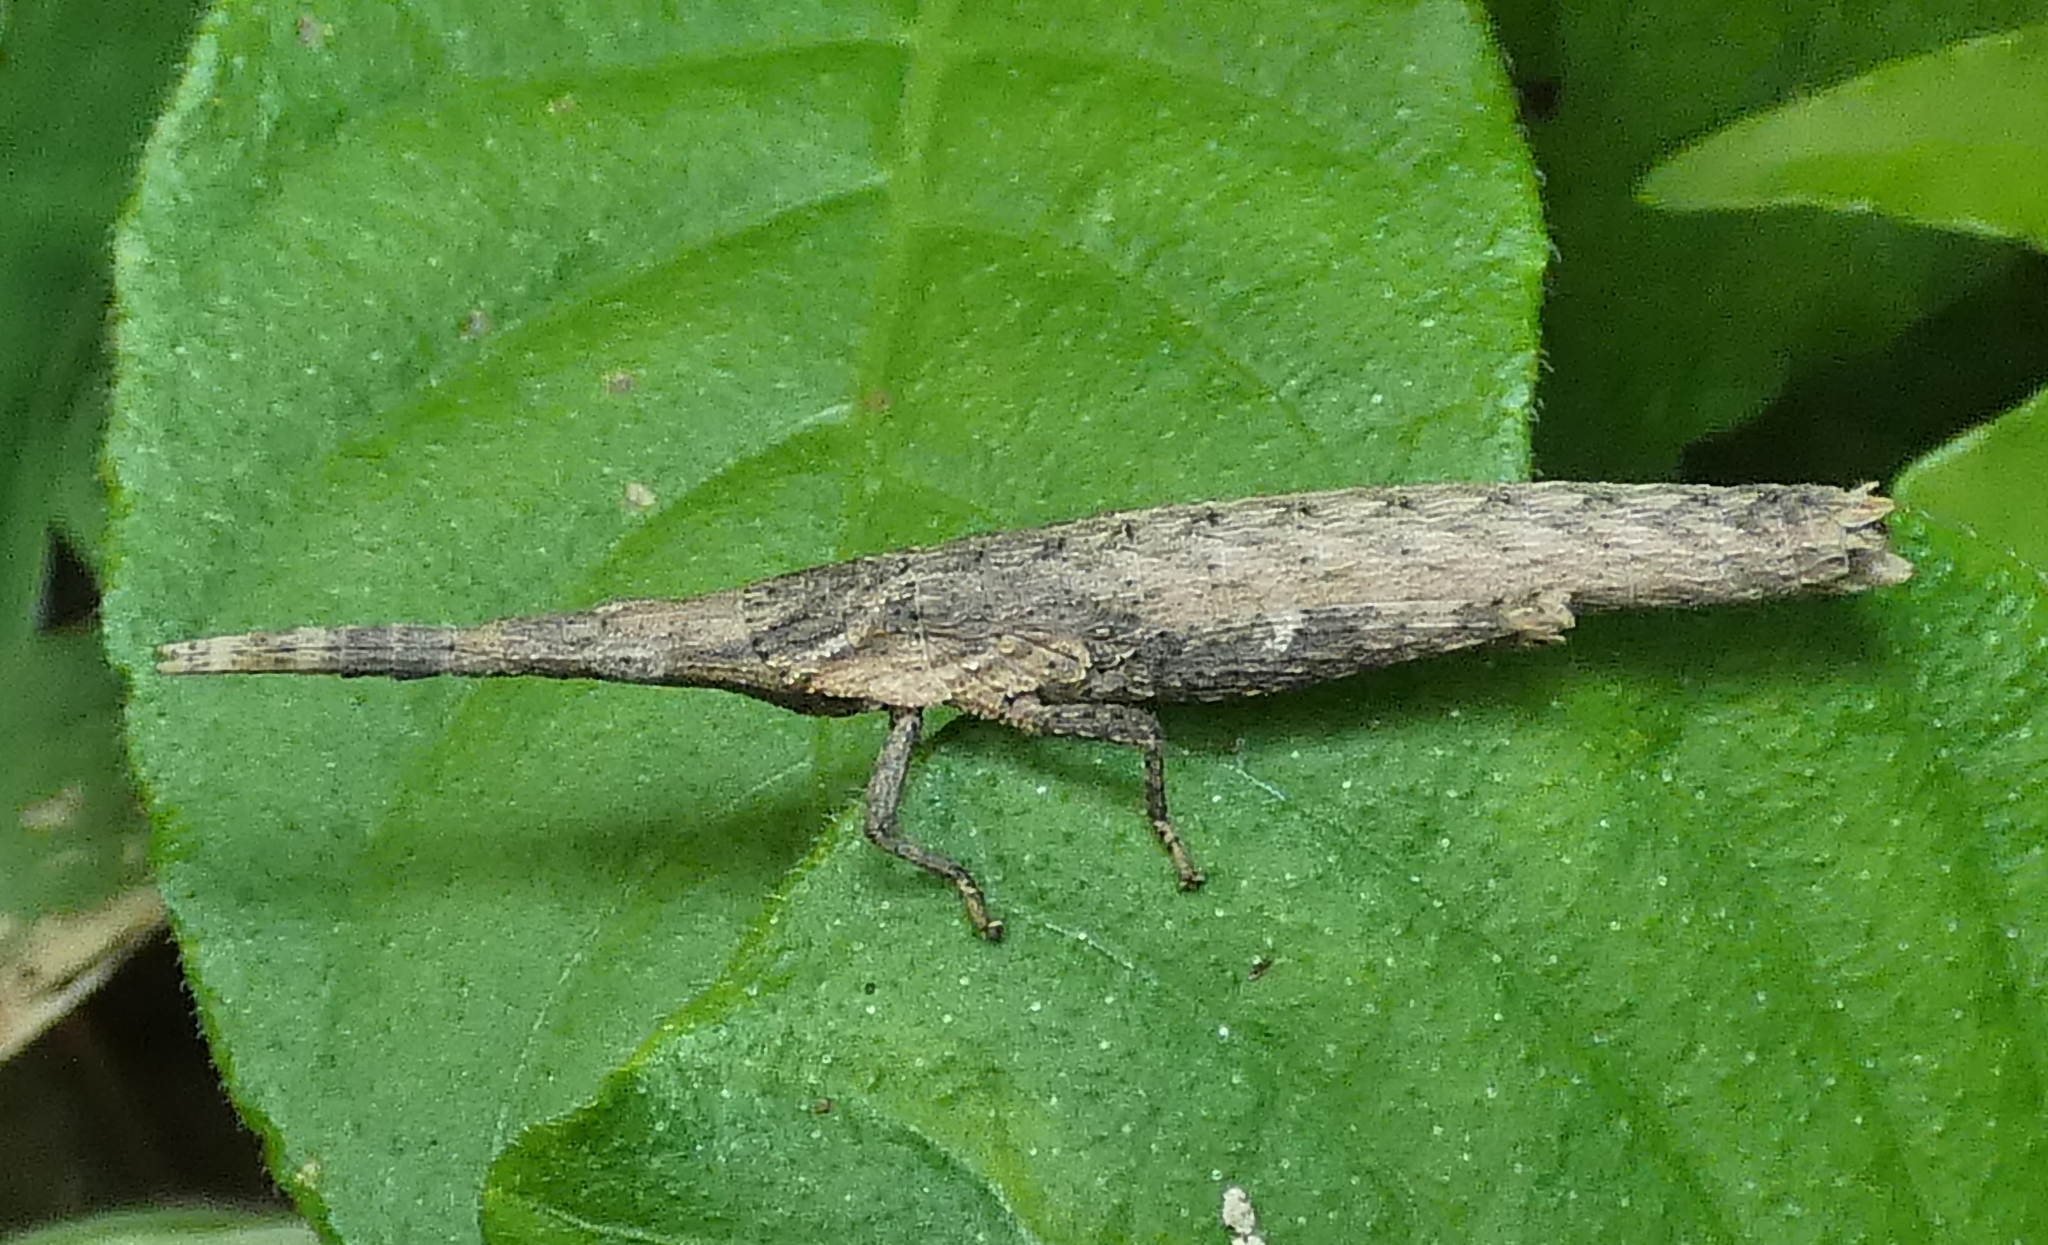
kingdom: Animalia
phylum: Arthropoda
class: Insecta
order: Orthoptera
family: Pyrgomorphidae
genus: Algete
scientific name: Algete brunneri
